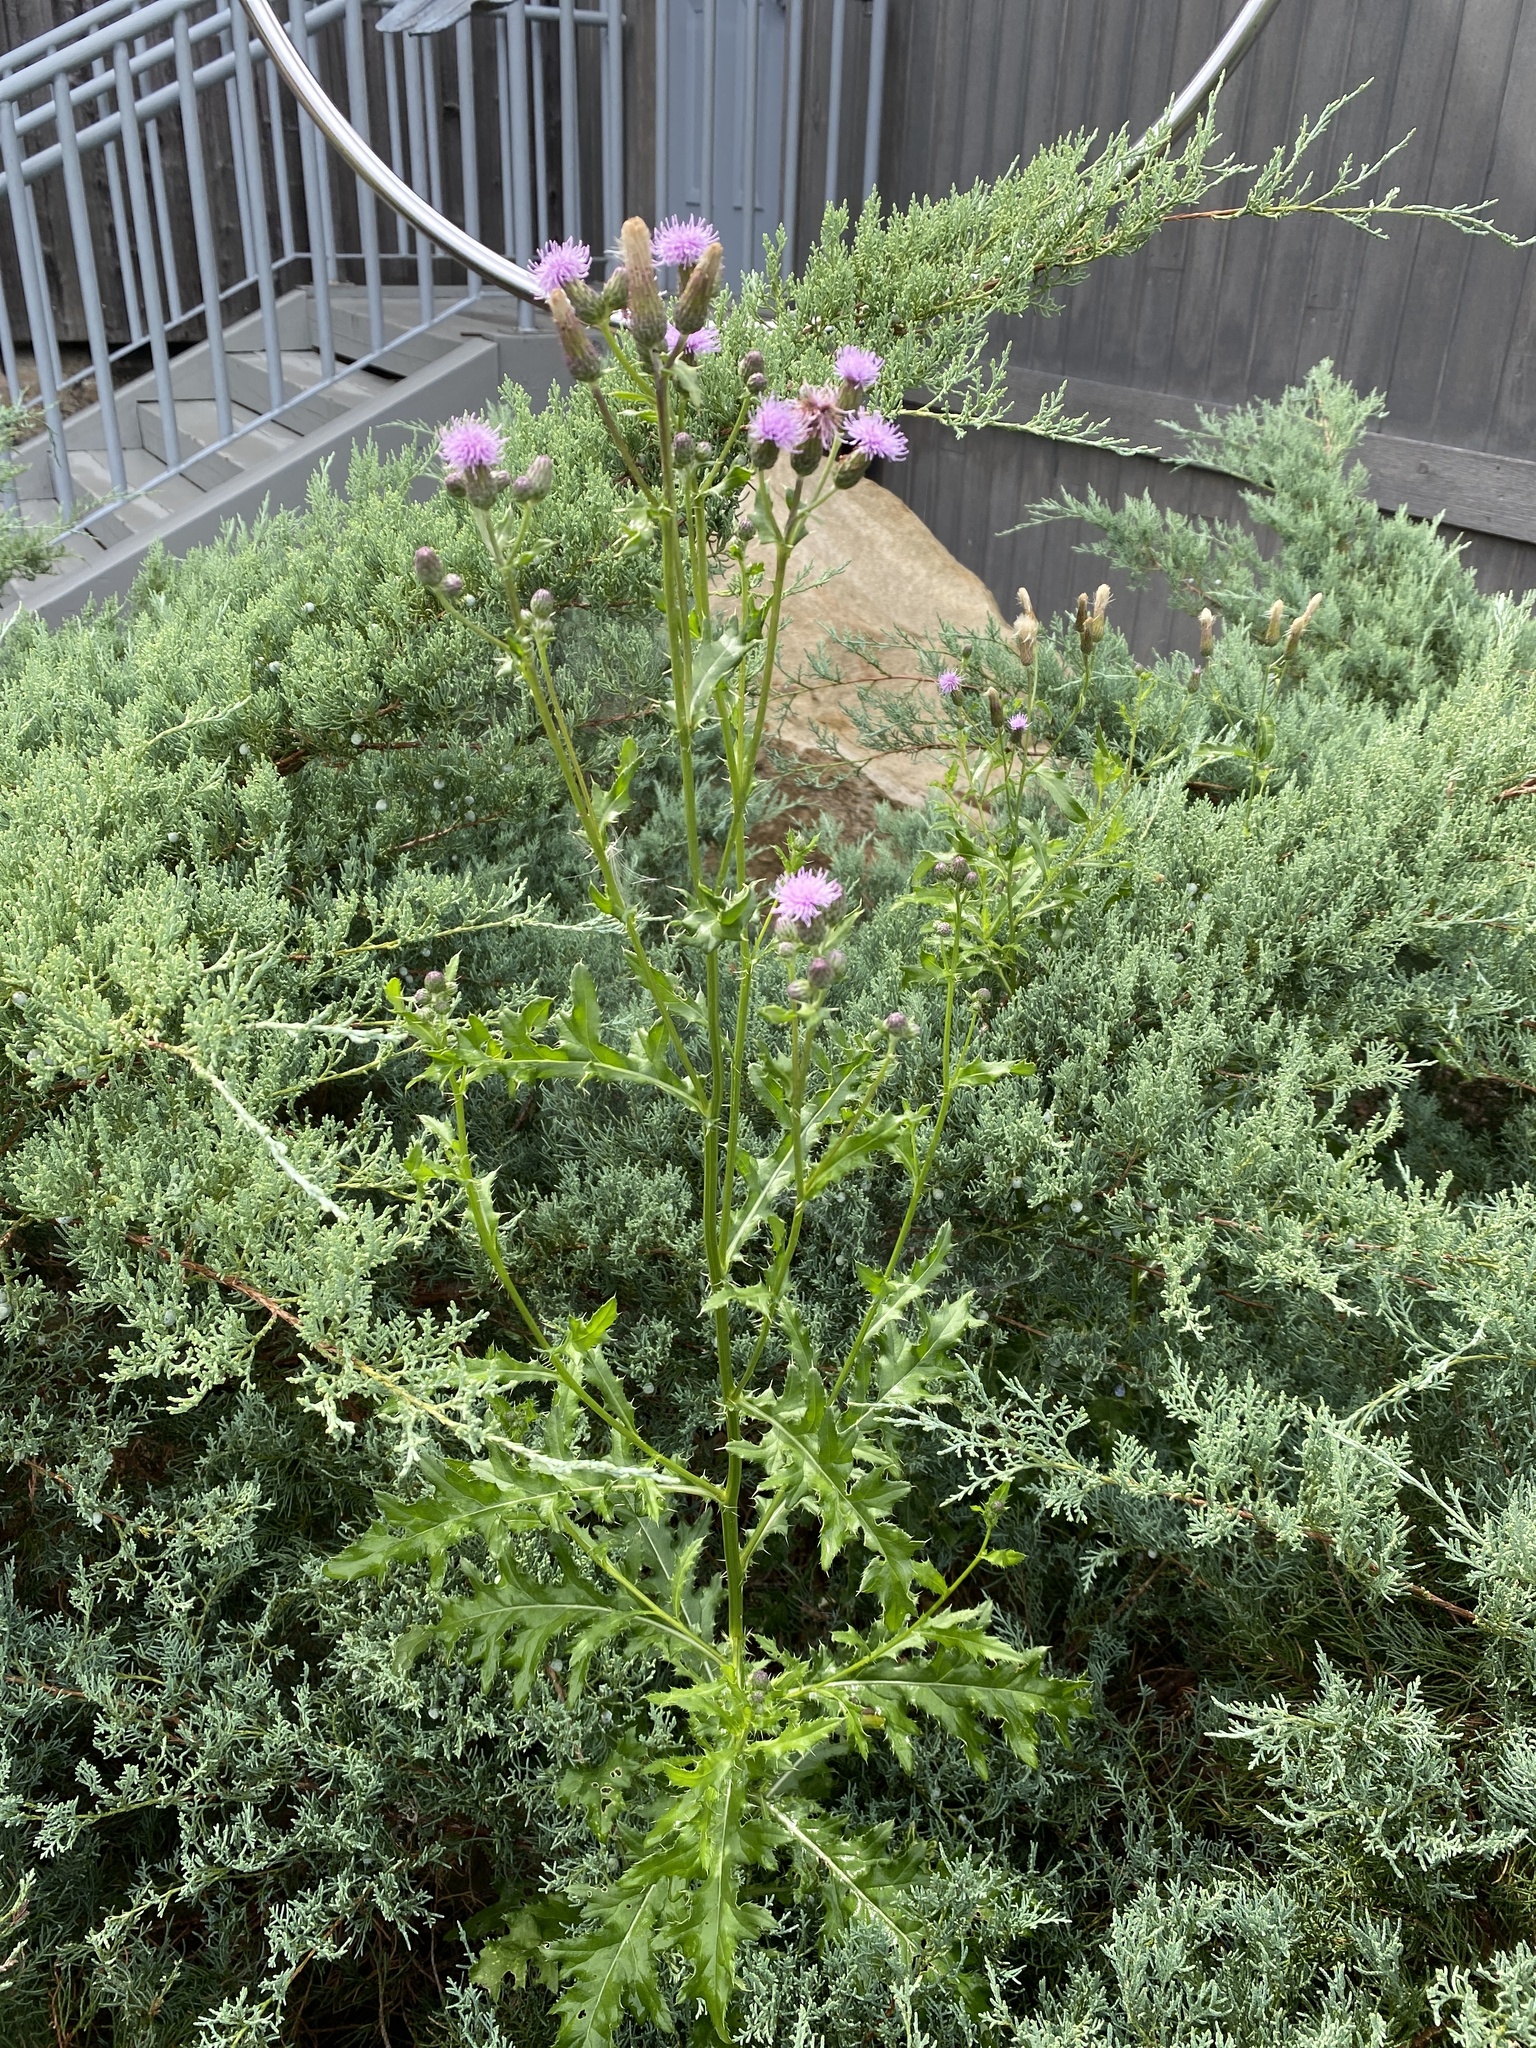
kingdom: Plantae
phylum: Tracheophyta
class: Magnoliopsida
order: Asterales
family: Asteraceae
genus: Cirsium
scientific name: Cirsium arvense
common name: Creeping thistle
